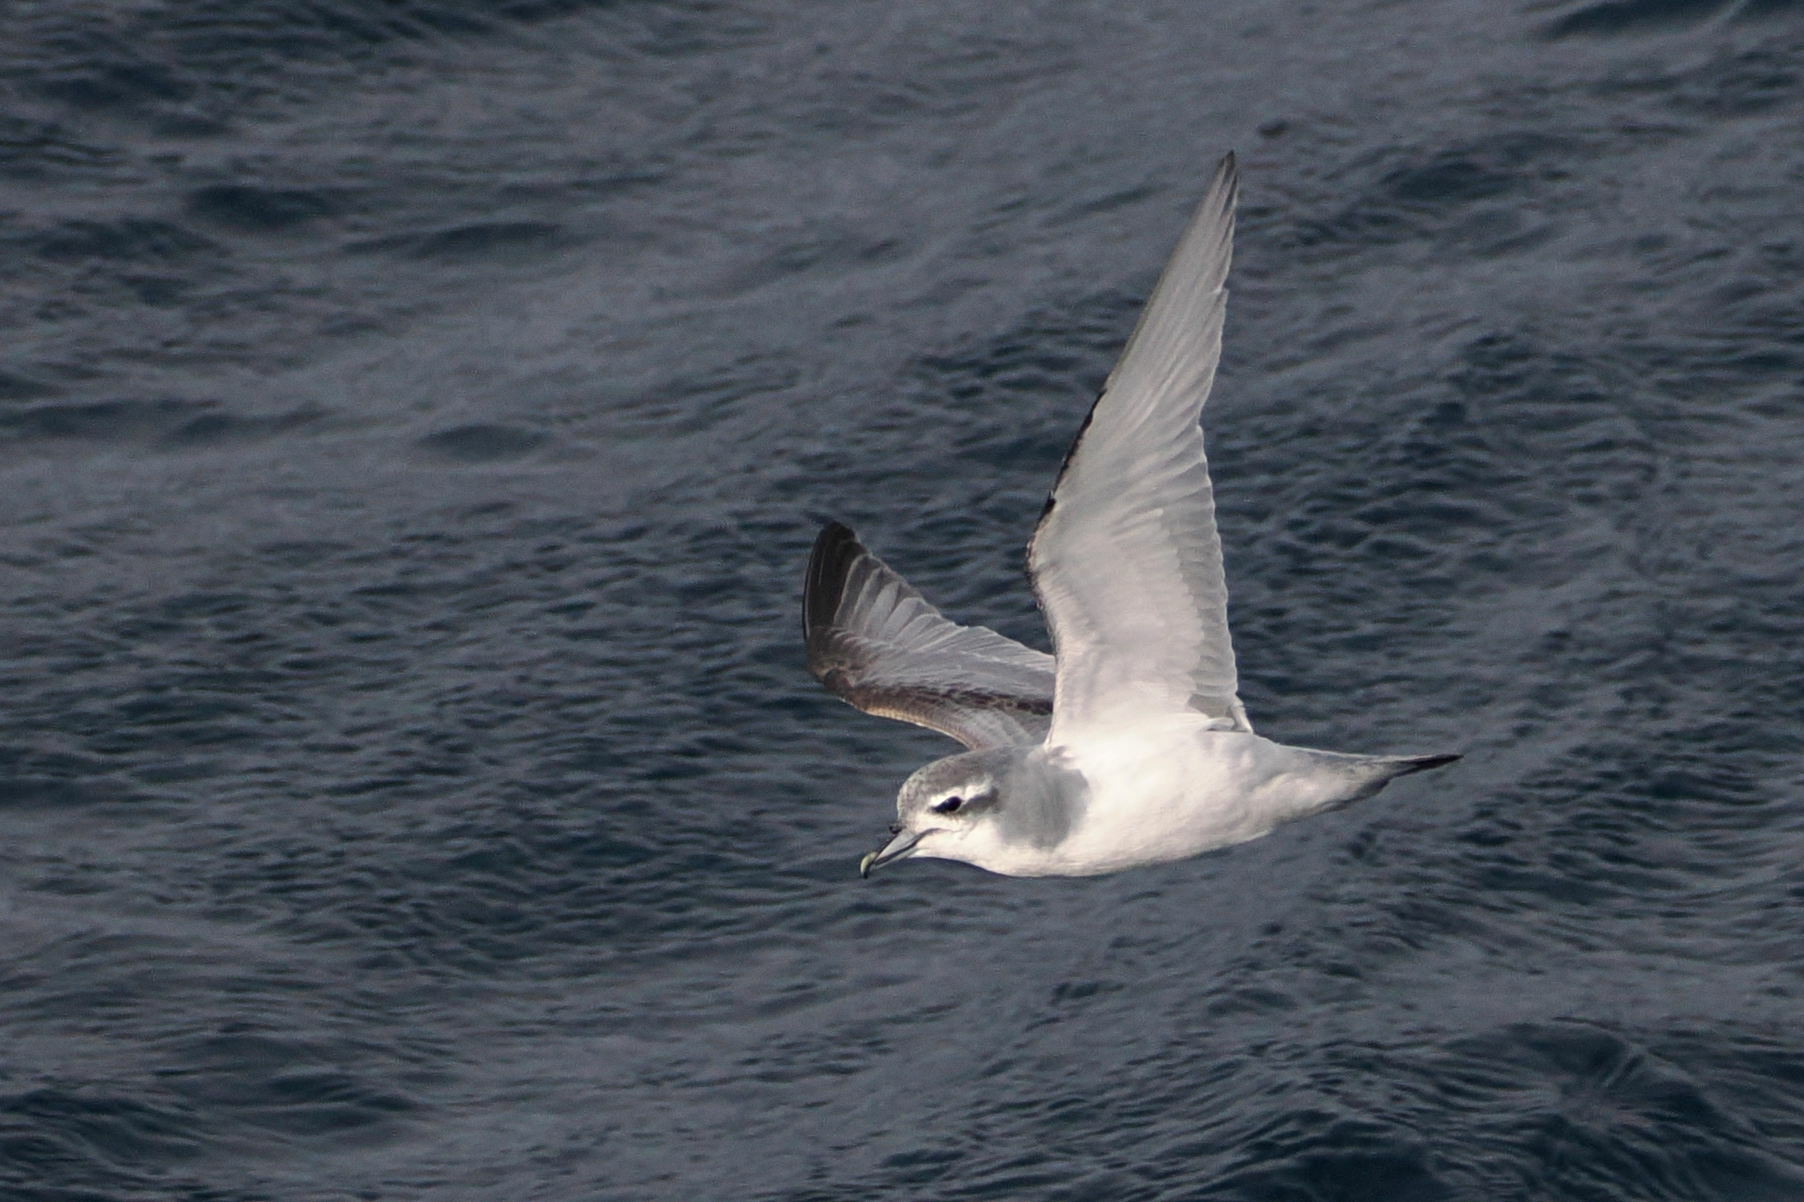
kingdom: Animalia
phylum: Chordata
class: Aves
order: Procellariiformes
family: Procellariidae
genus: Pachyptila
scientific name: Pachyptila belcheri
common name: Slender-billed prion
